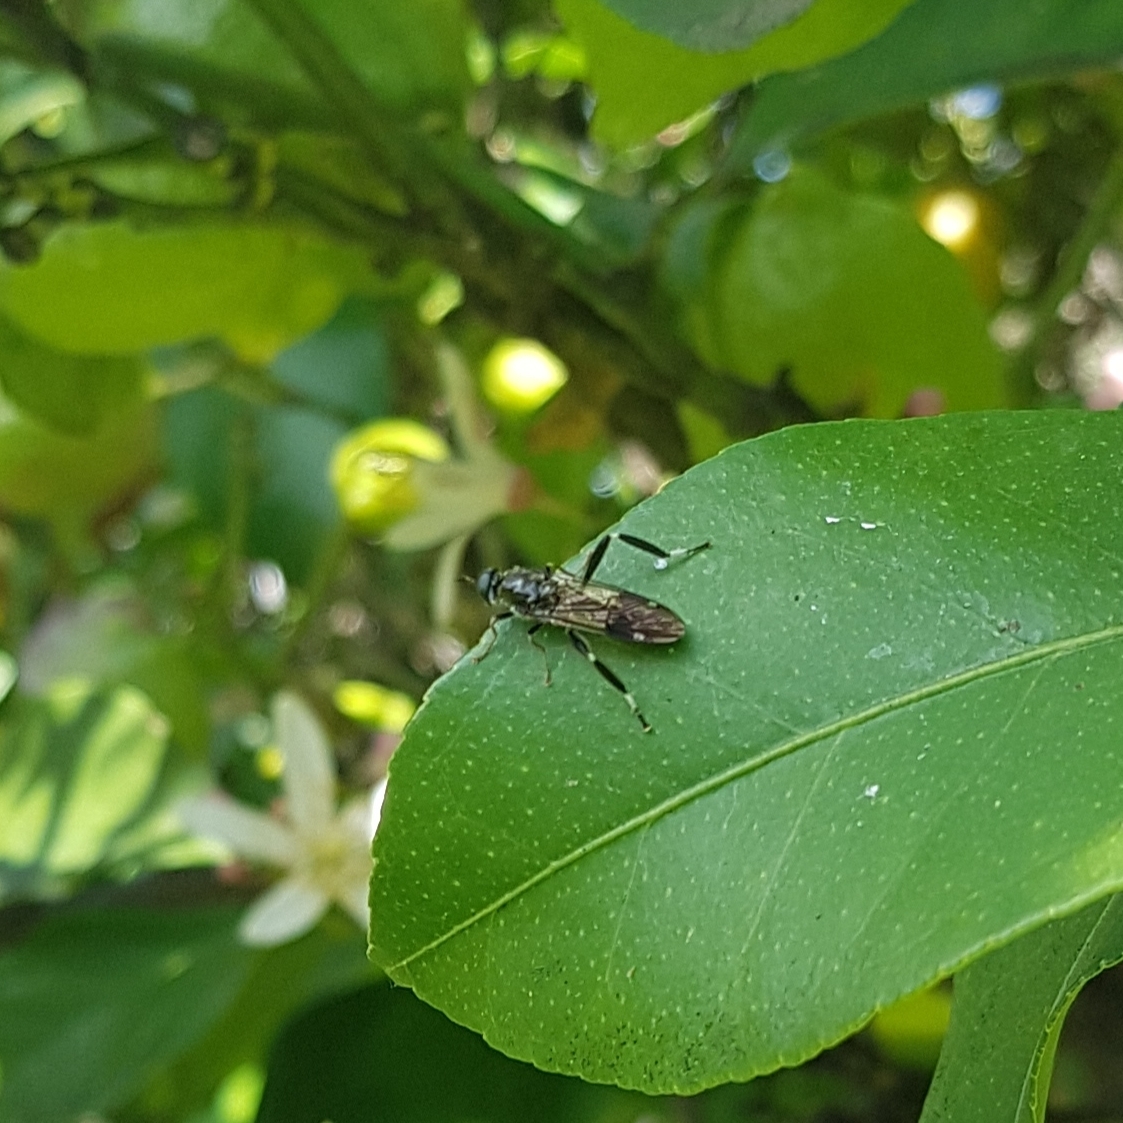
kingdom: Animalia
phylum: Arthropoda
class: Insecta
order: Diptera
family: Stratiomyidae
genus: Exaireta
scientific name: Exaireta spinigera
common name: Blue soldier fly
